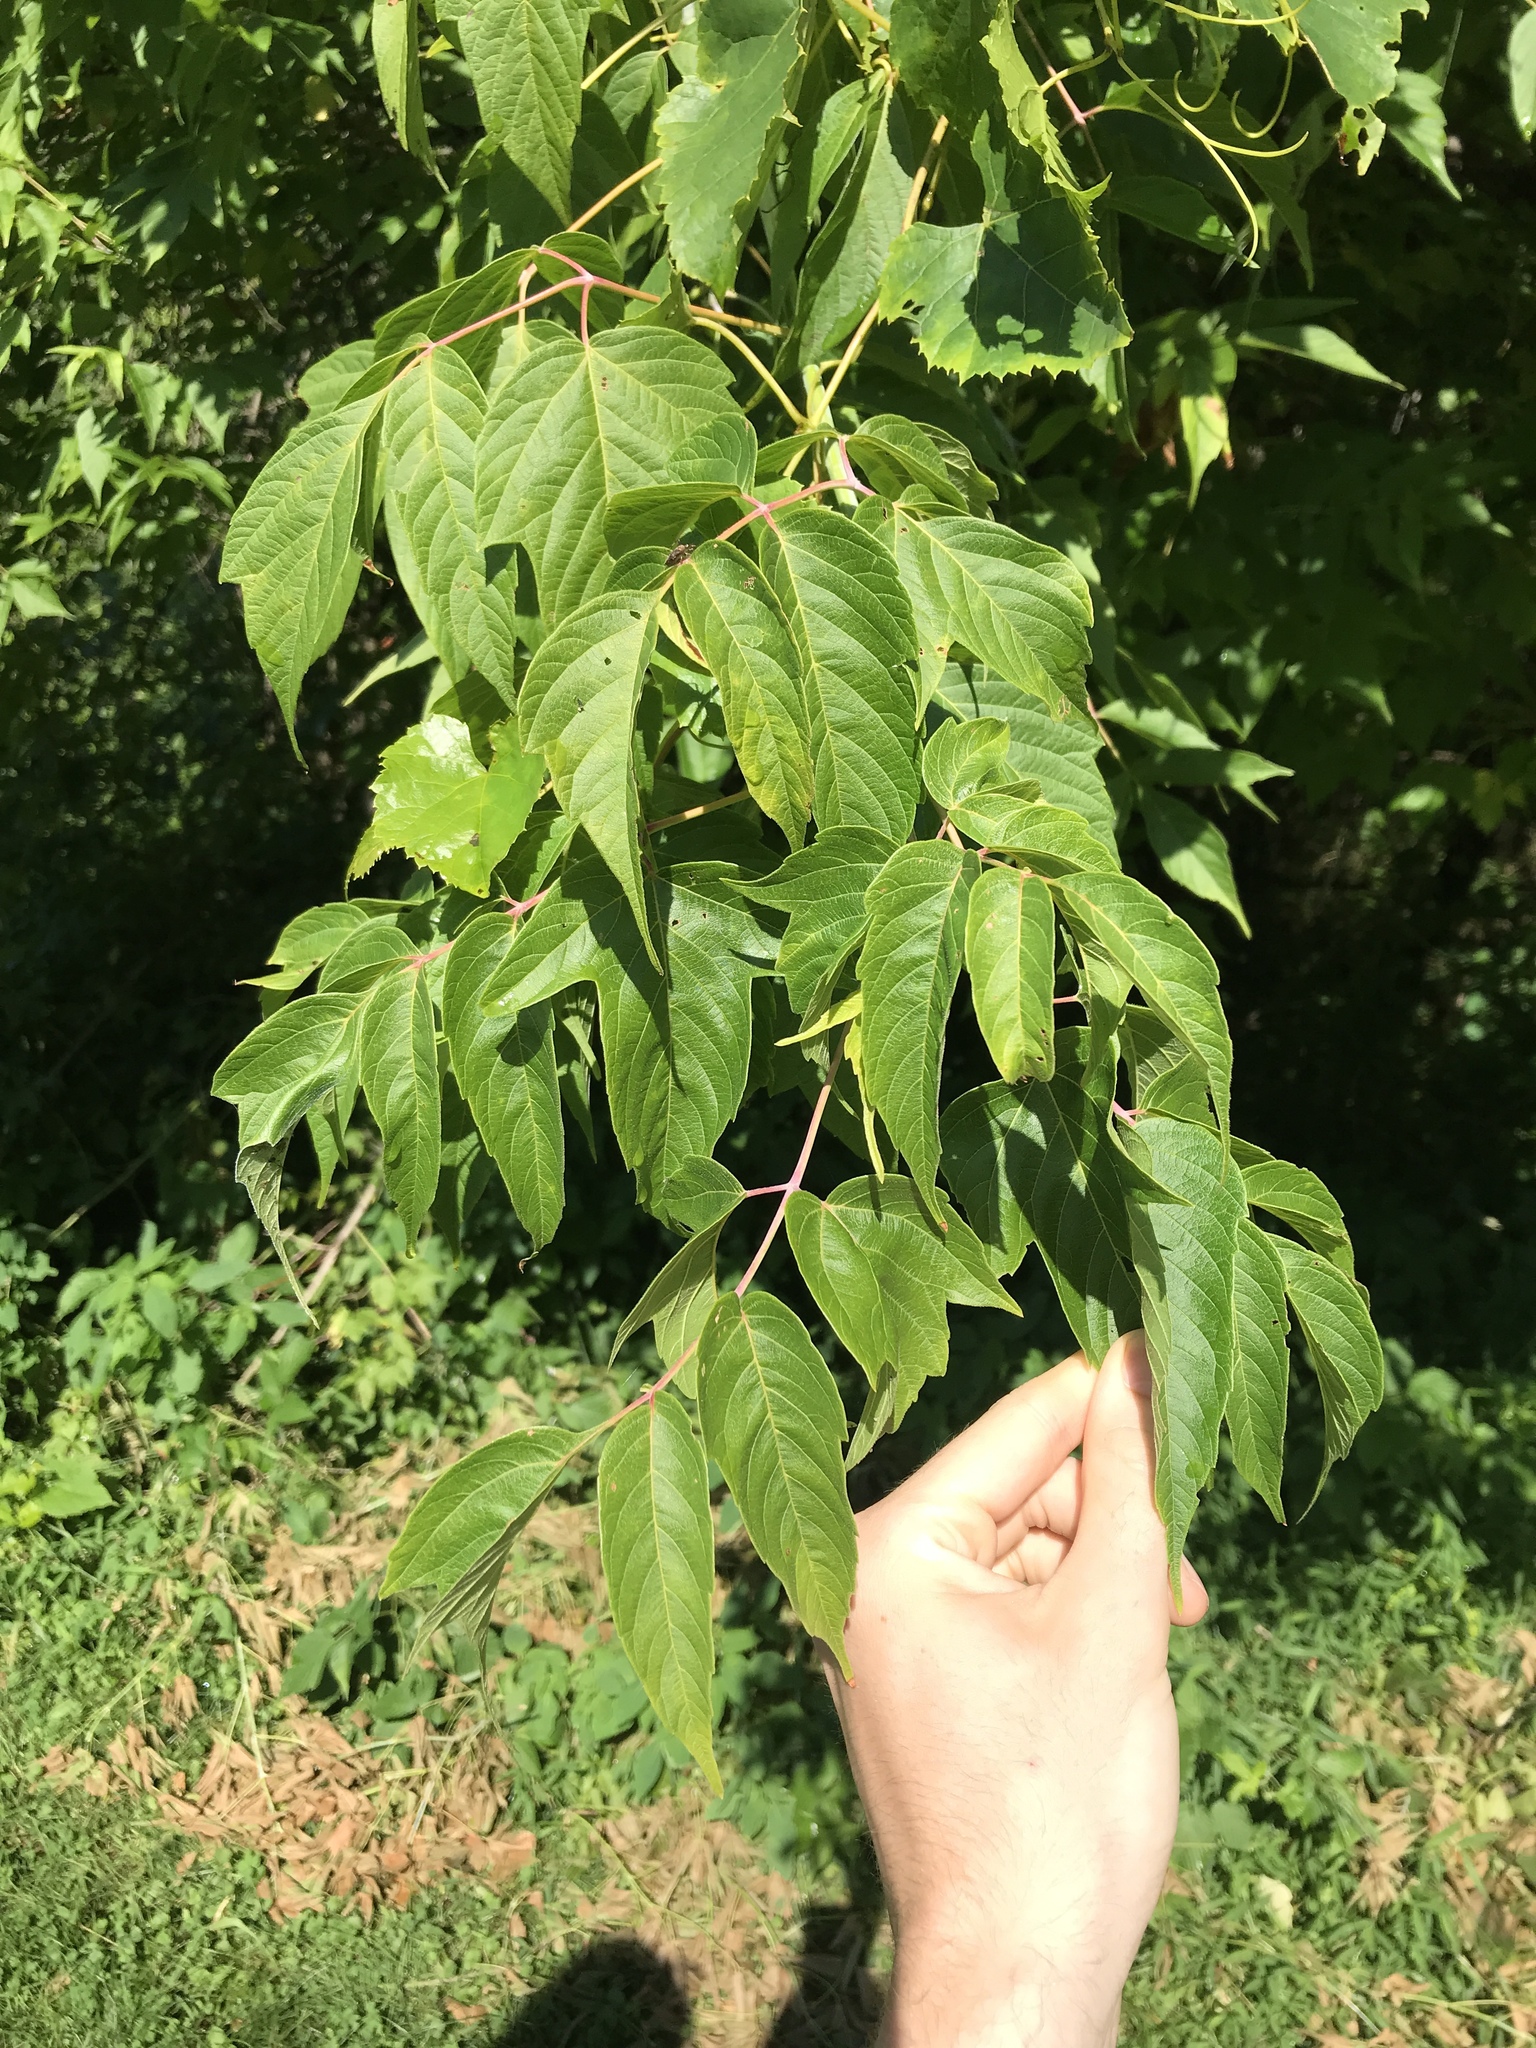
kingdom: Plantae
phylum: Tracheophyta
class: Magnoliopsida
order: Sapindales
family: Sapindaceae
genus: Acer
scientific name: Acer negundo
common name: Ashleaf maple
